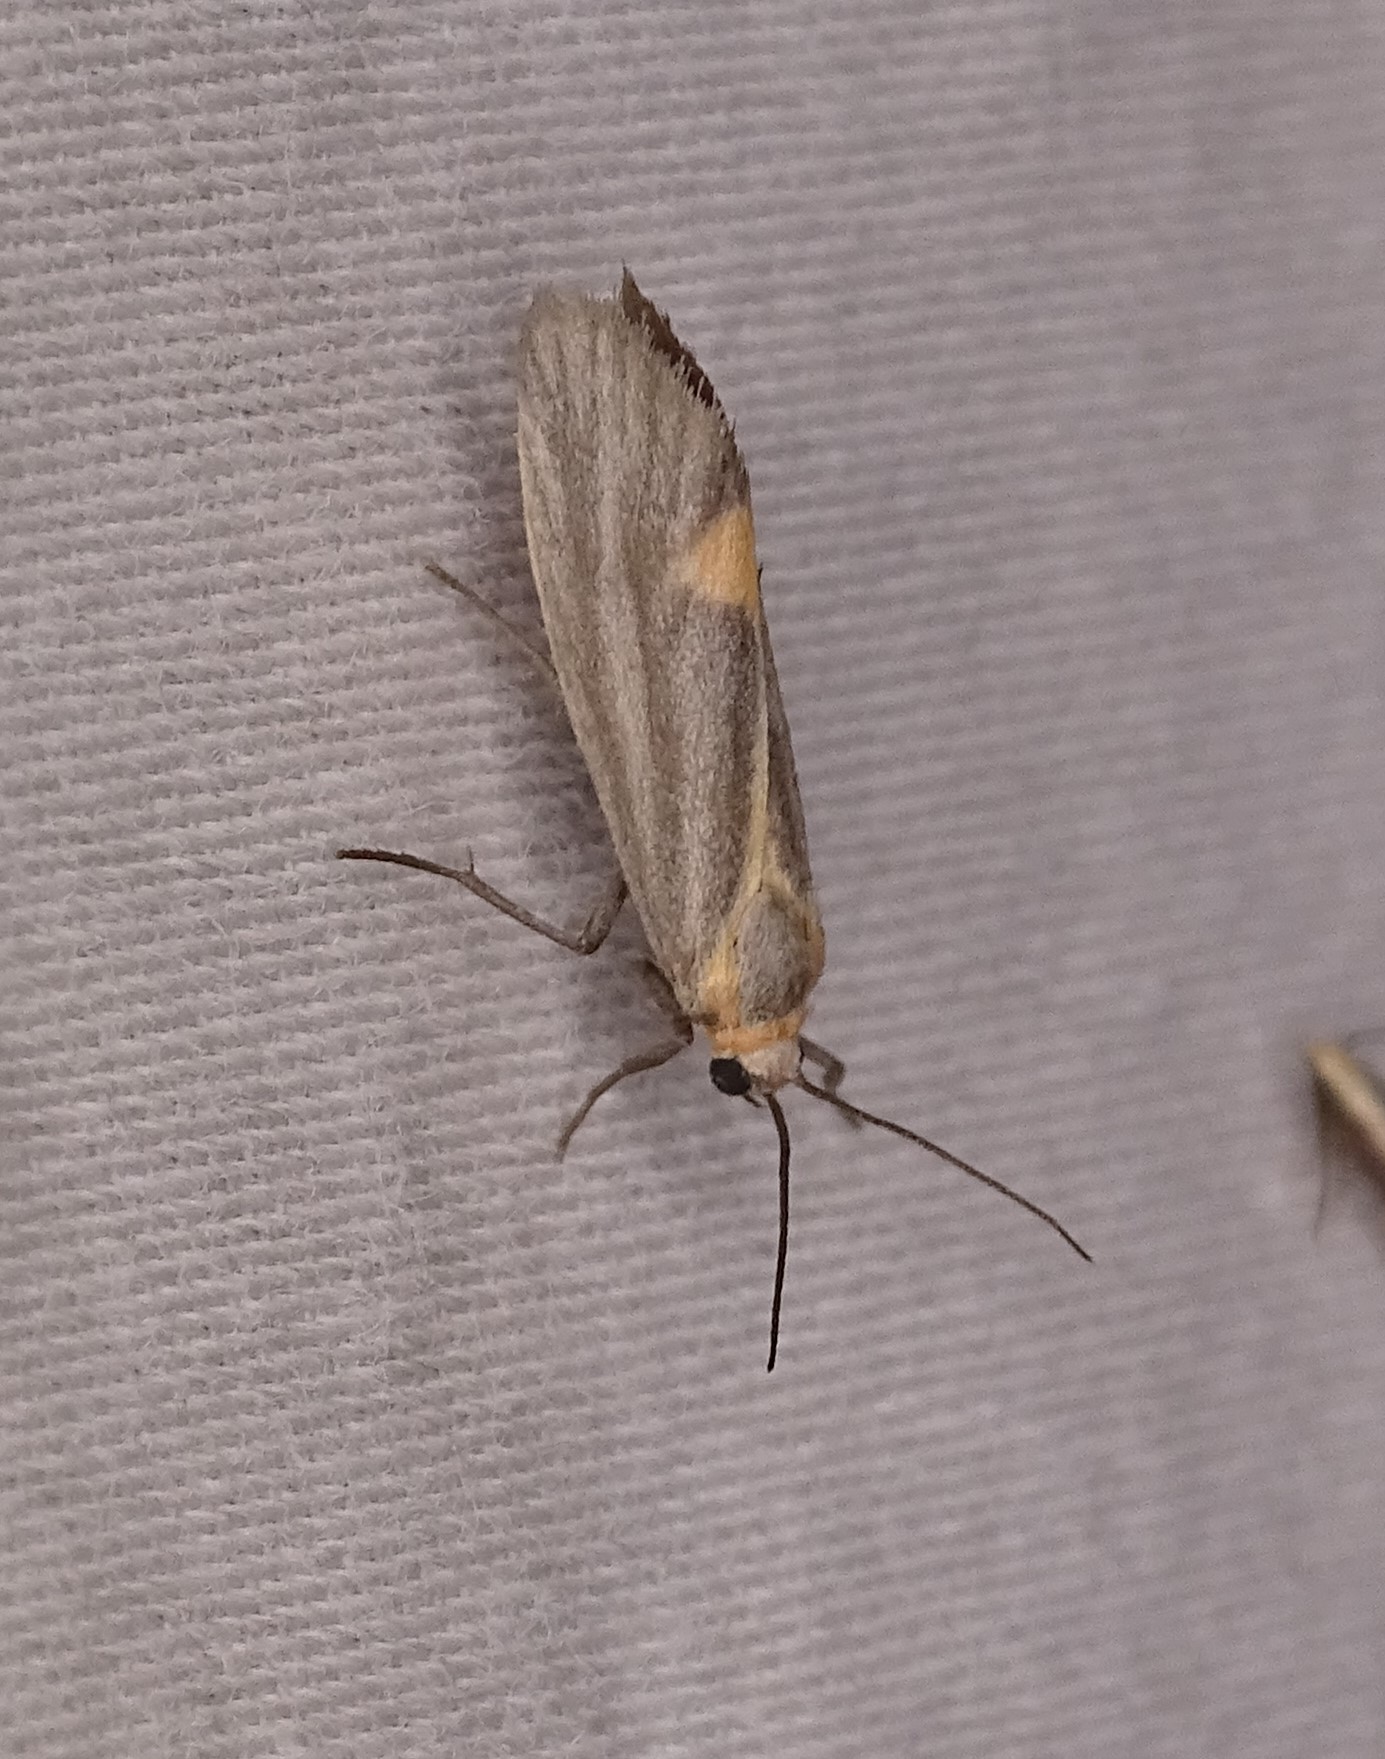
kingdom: Animalia
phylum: Arthropoda
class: Insecta
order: Lepidoptera
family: Erebidae
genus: Cisthene
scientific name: Cisthene striata
